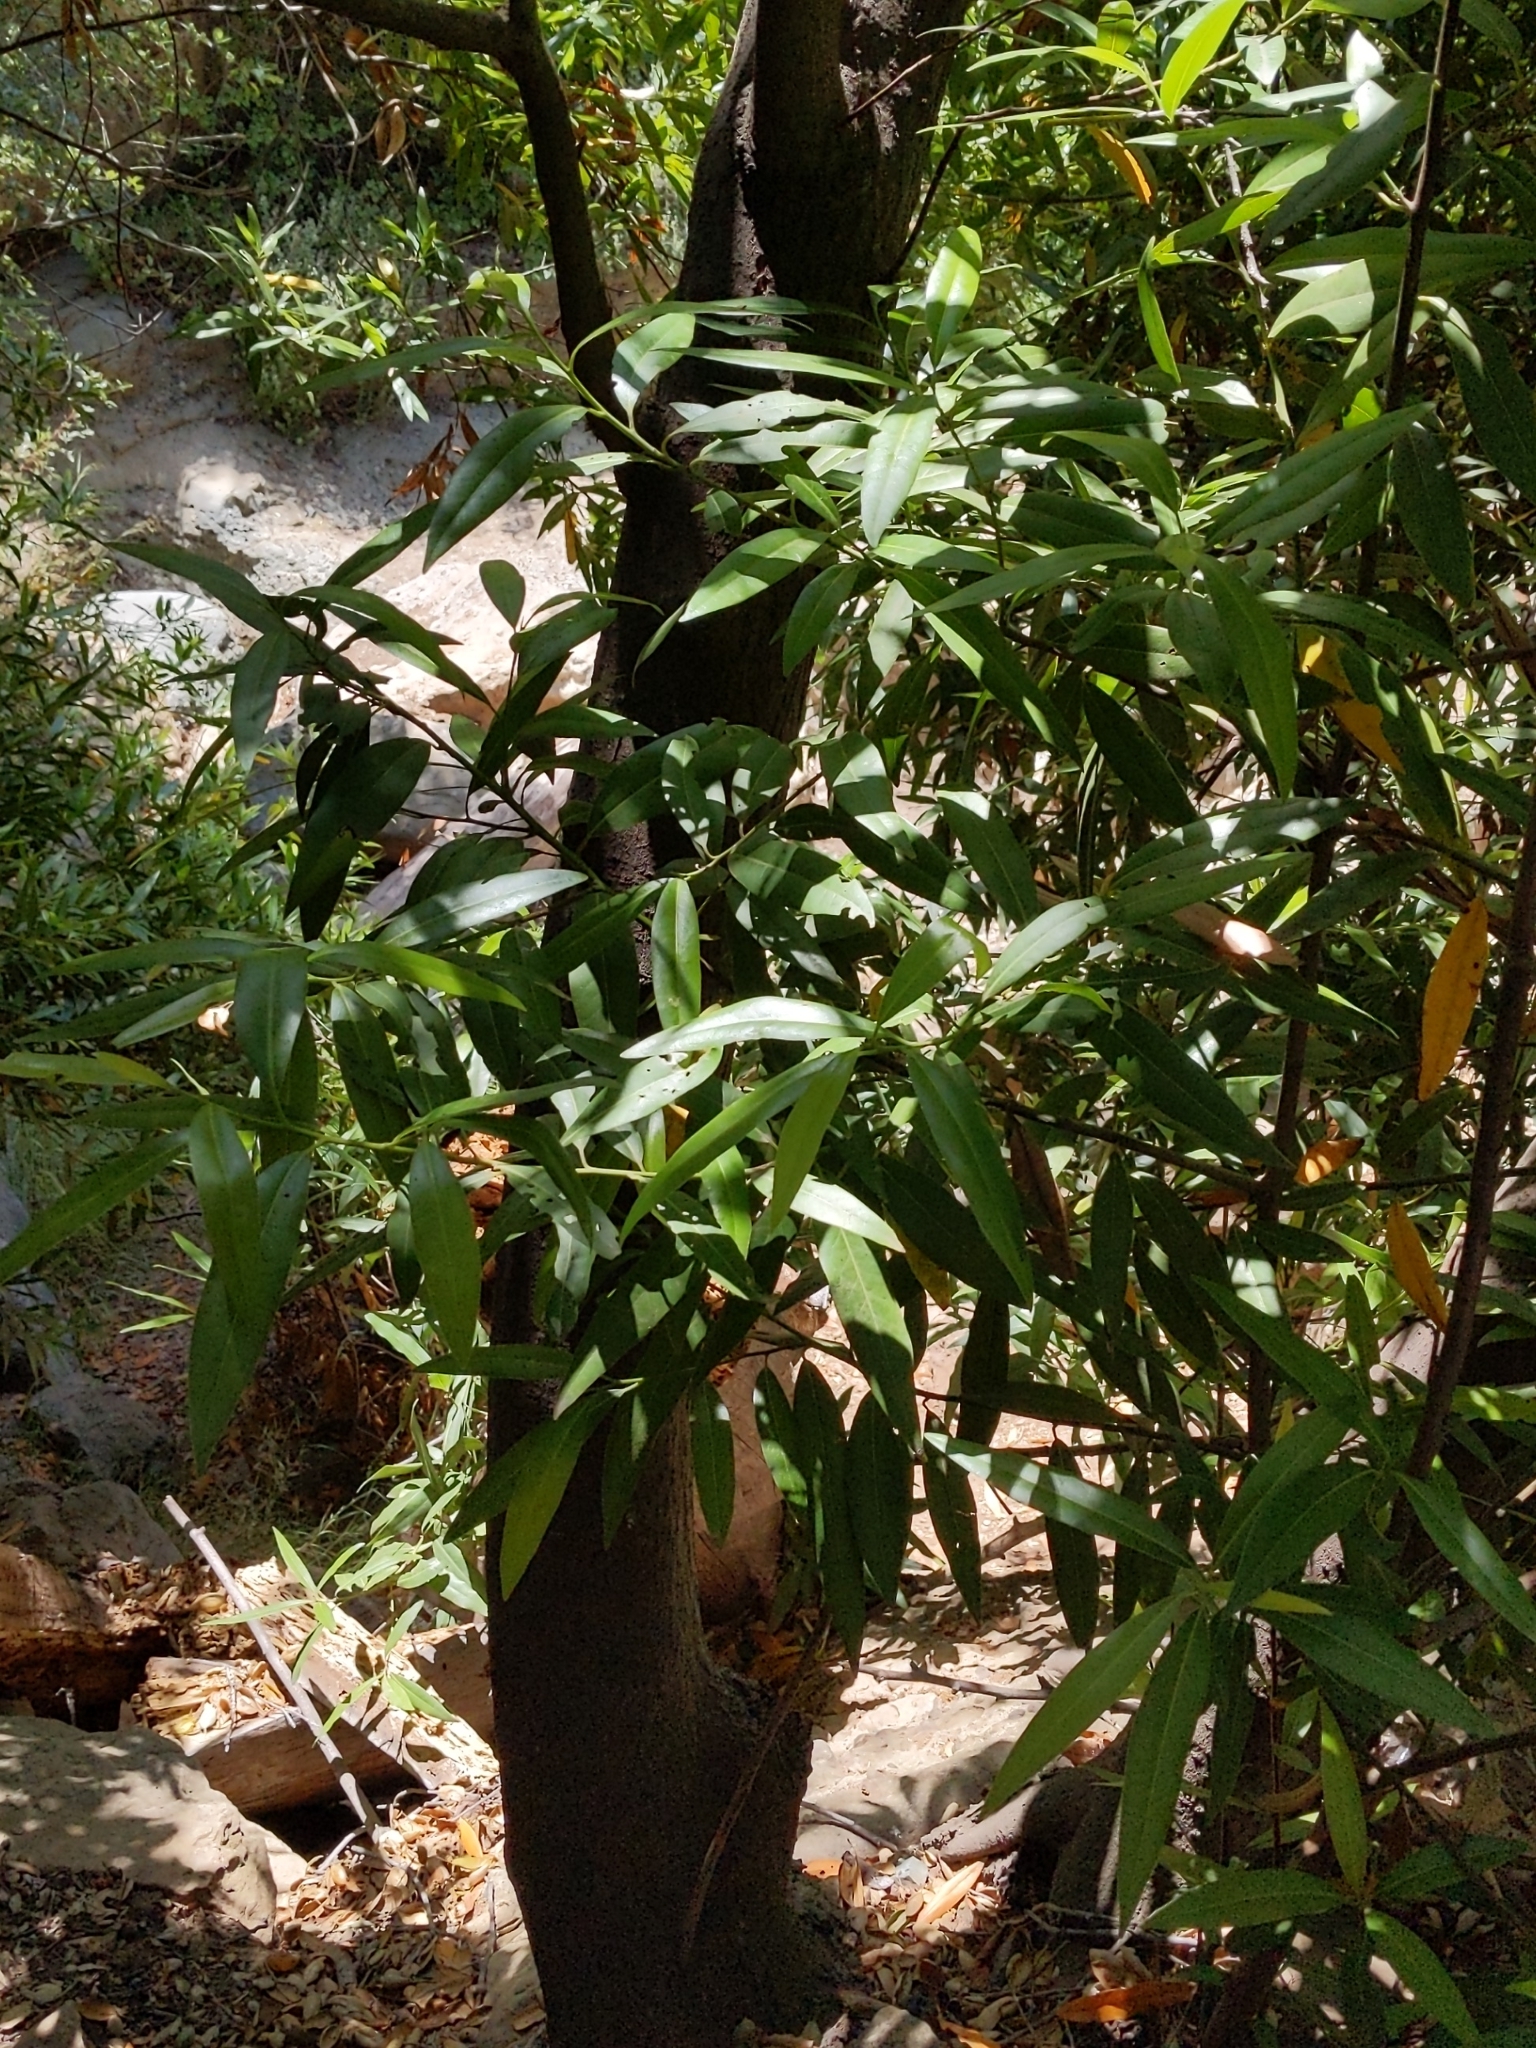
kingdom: Plantae
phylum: Tracheophyta
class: Magnoliopsida
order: Laurales
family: Lauraceae
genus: Umbellularia
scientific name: Umbellularia californica
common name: California bay
